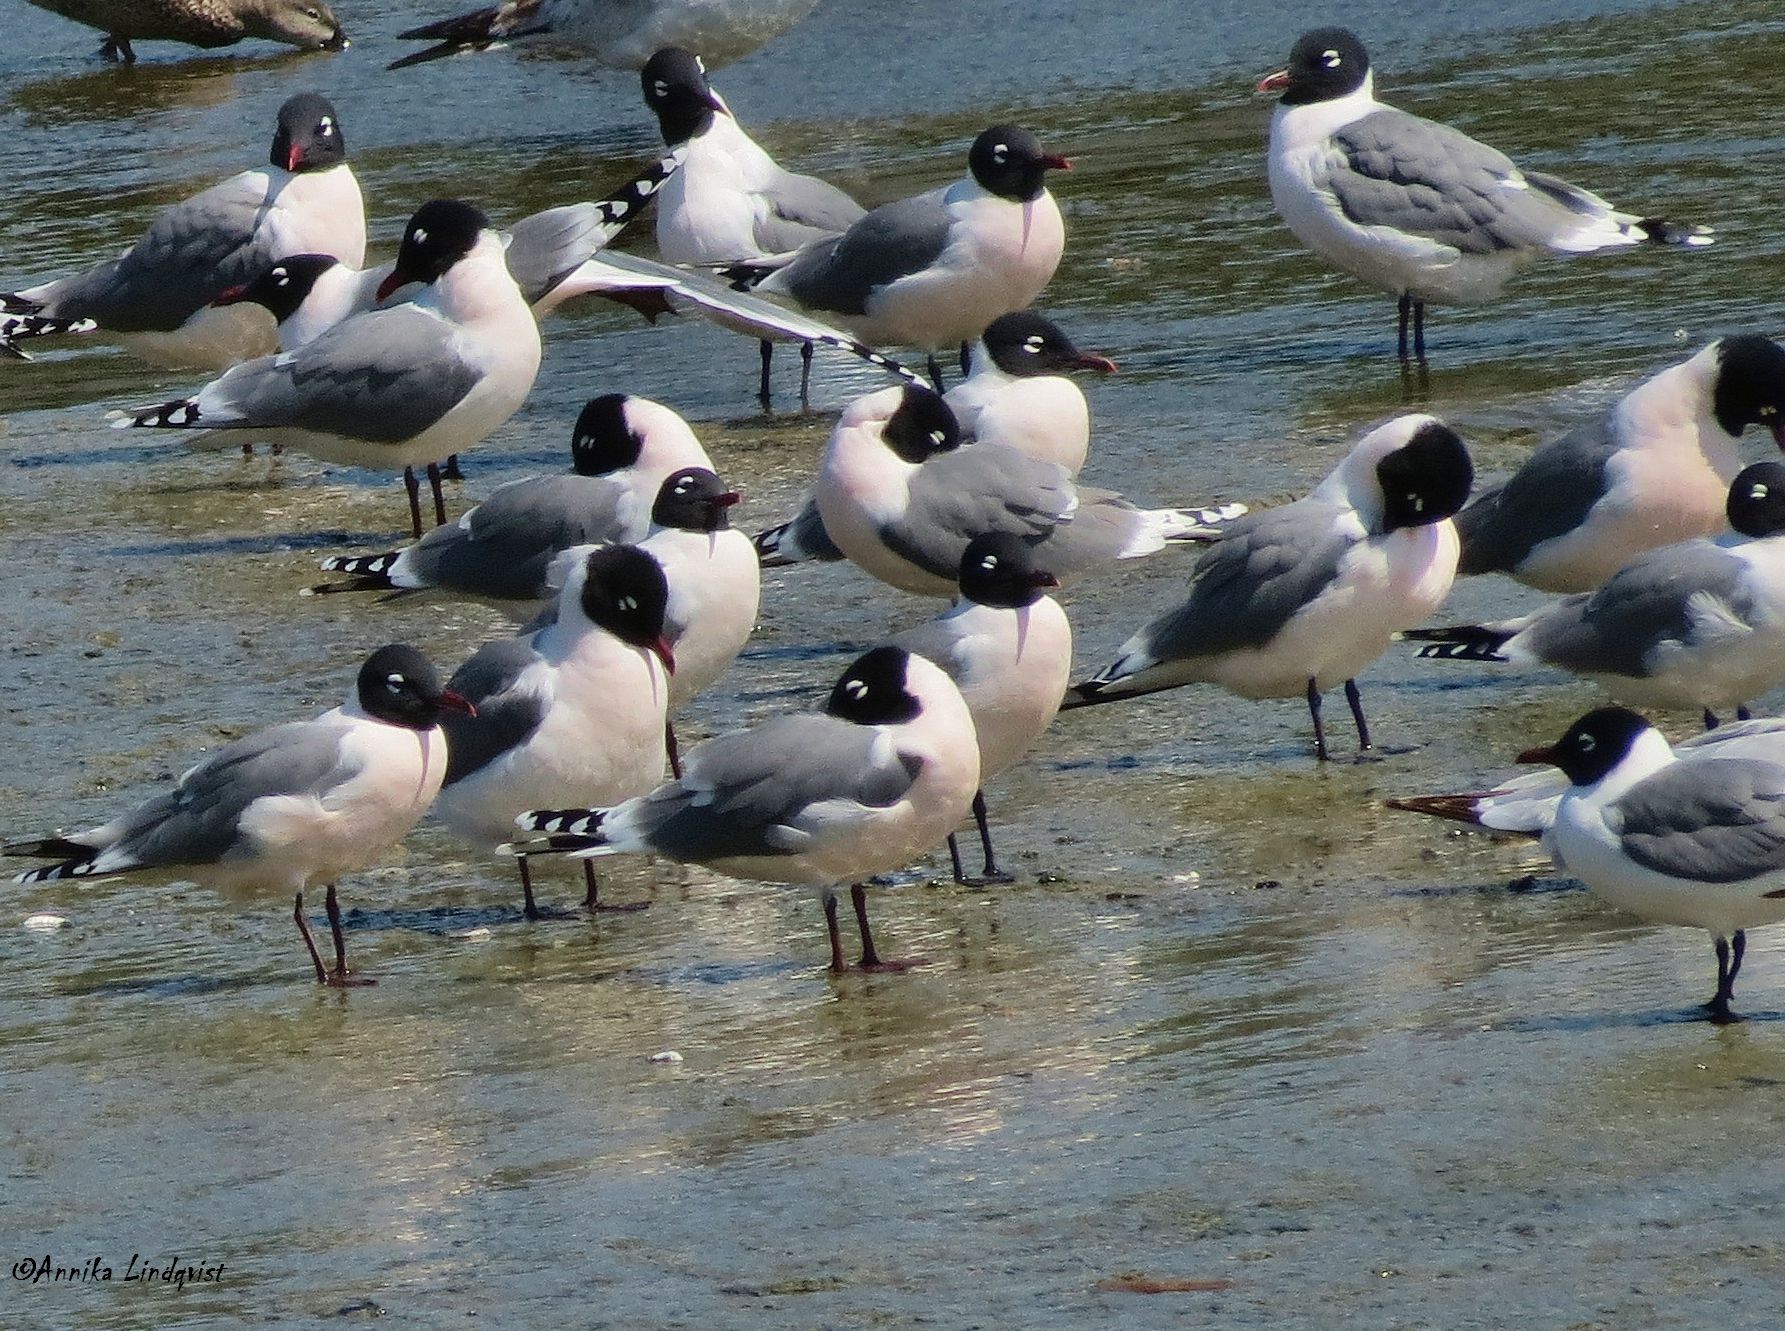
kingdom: Animalia
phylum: Chordata
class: Aves
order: Charadriiformes
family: Laridae
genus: Leucophaeus
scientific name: Leucophaeus pipixcan
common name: Franklin's gull
